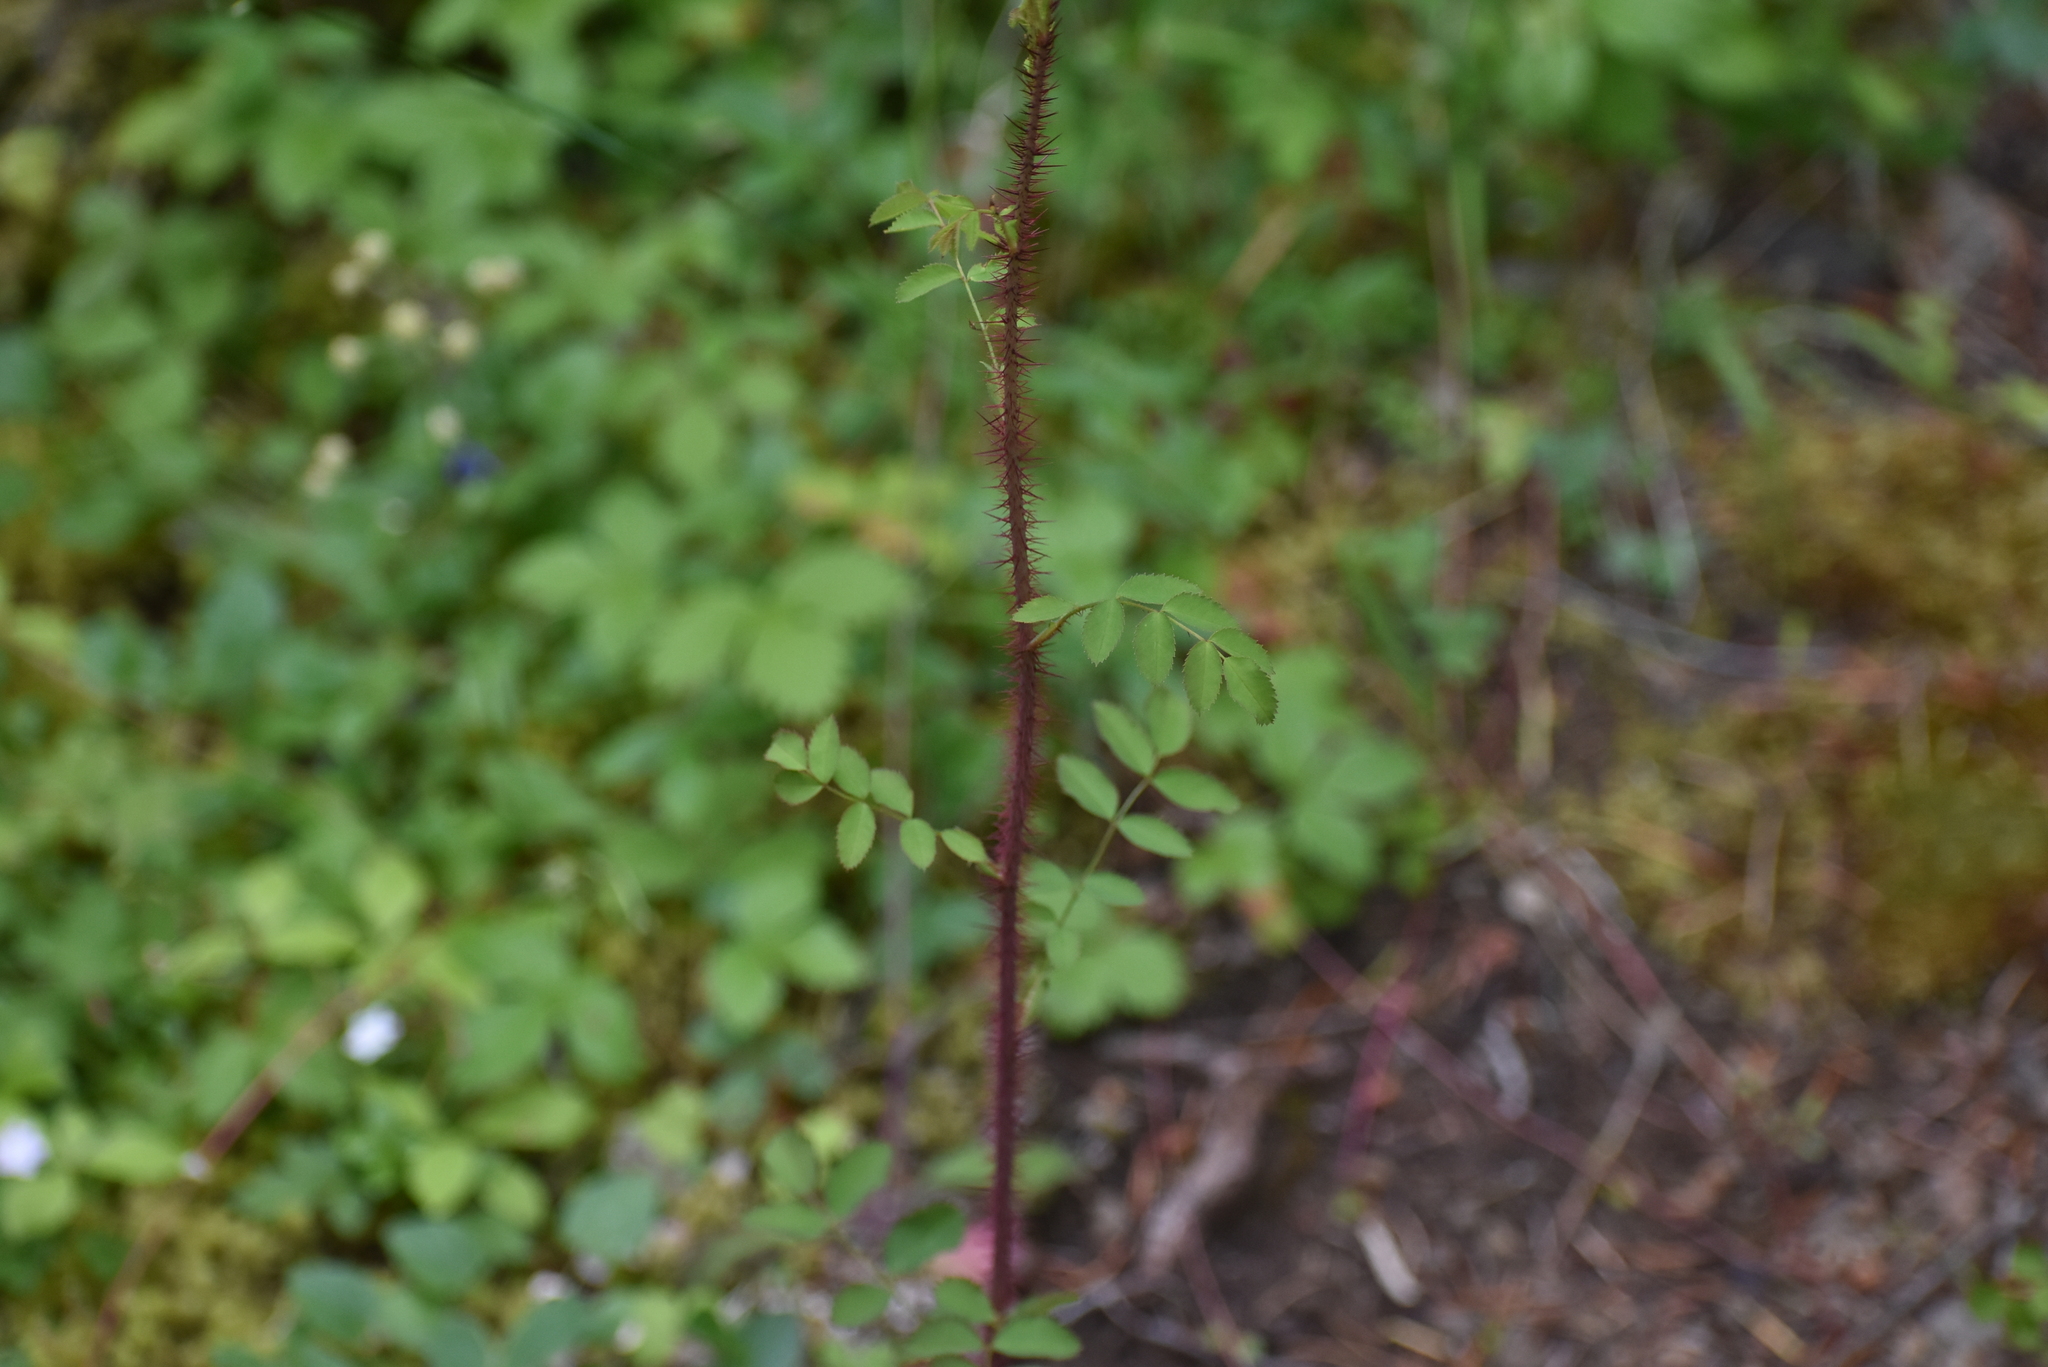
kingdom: Plantae
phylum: Tracheophyta
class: Magnoliopsida
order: Rosales
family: Rosaceae
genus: Rosa
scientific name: Rosa gymnocarpa
